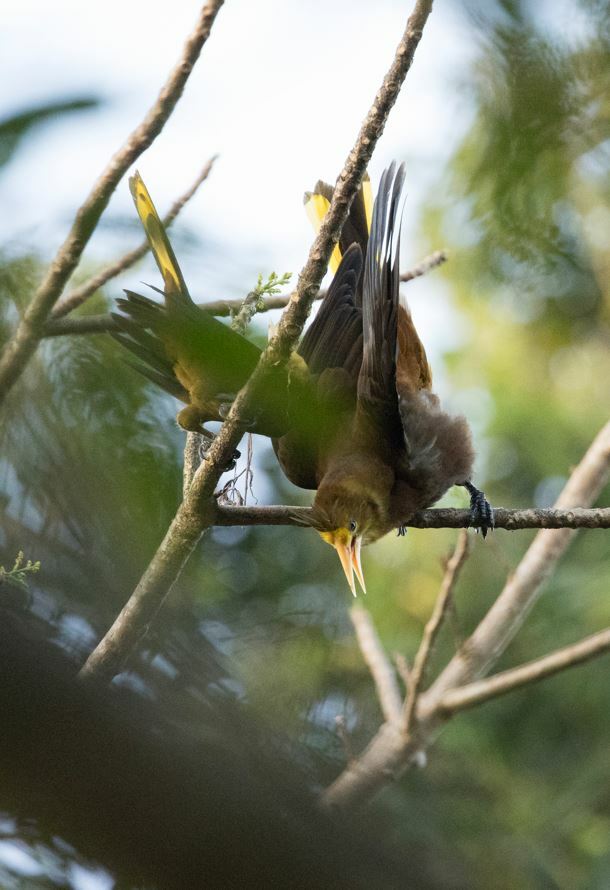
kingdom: Animalia
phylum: Chordata
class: Aves
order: Passeriformes
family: Icteridae
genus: Psarocolius
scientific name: Psarocolius angustifrons
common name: Russet-backed oropendola
